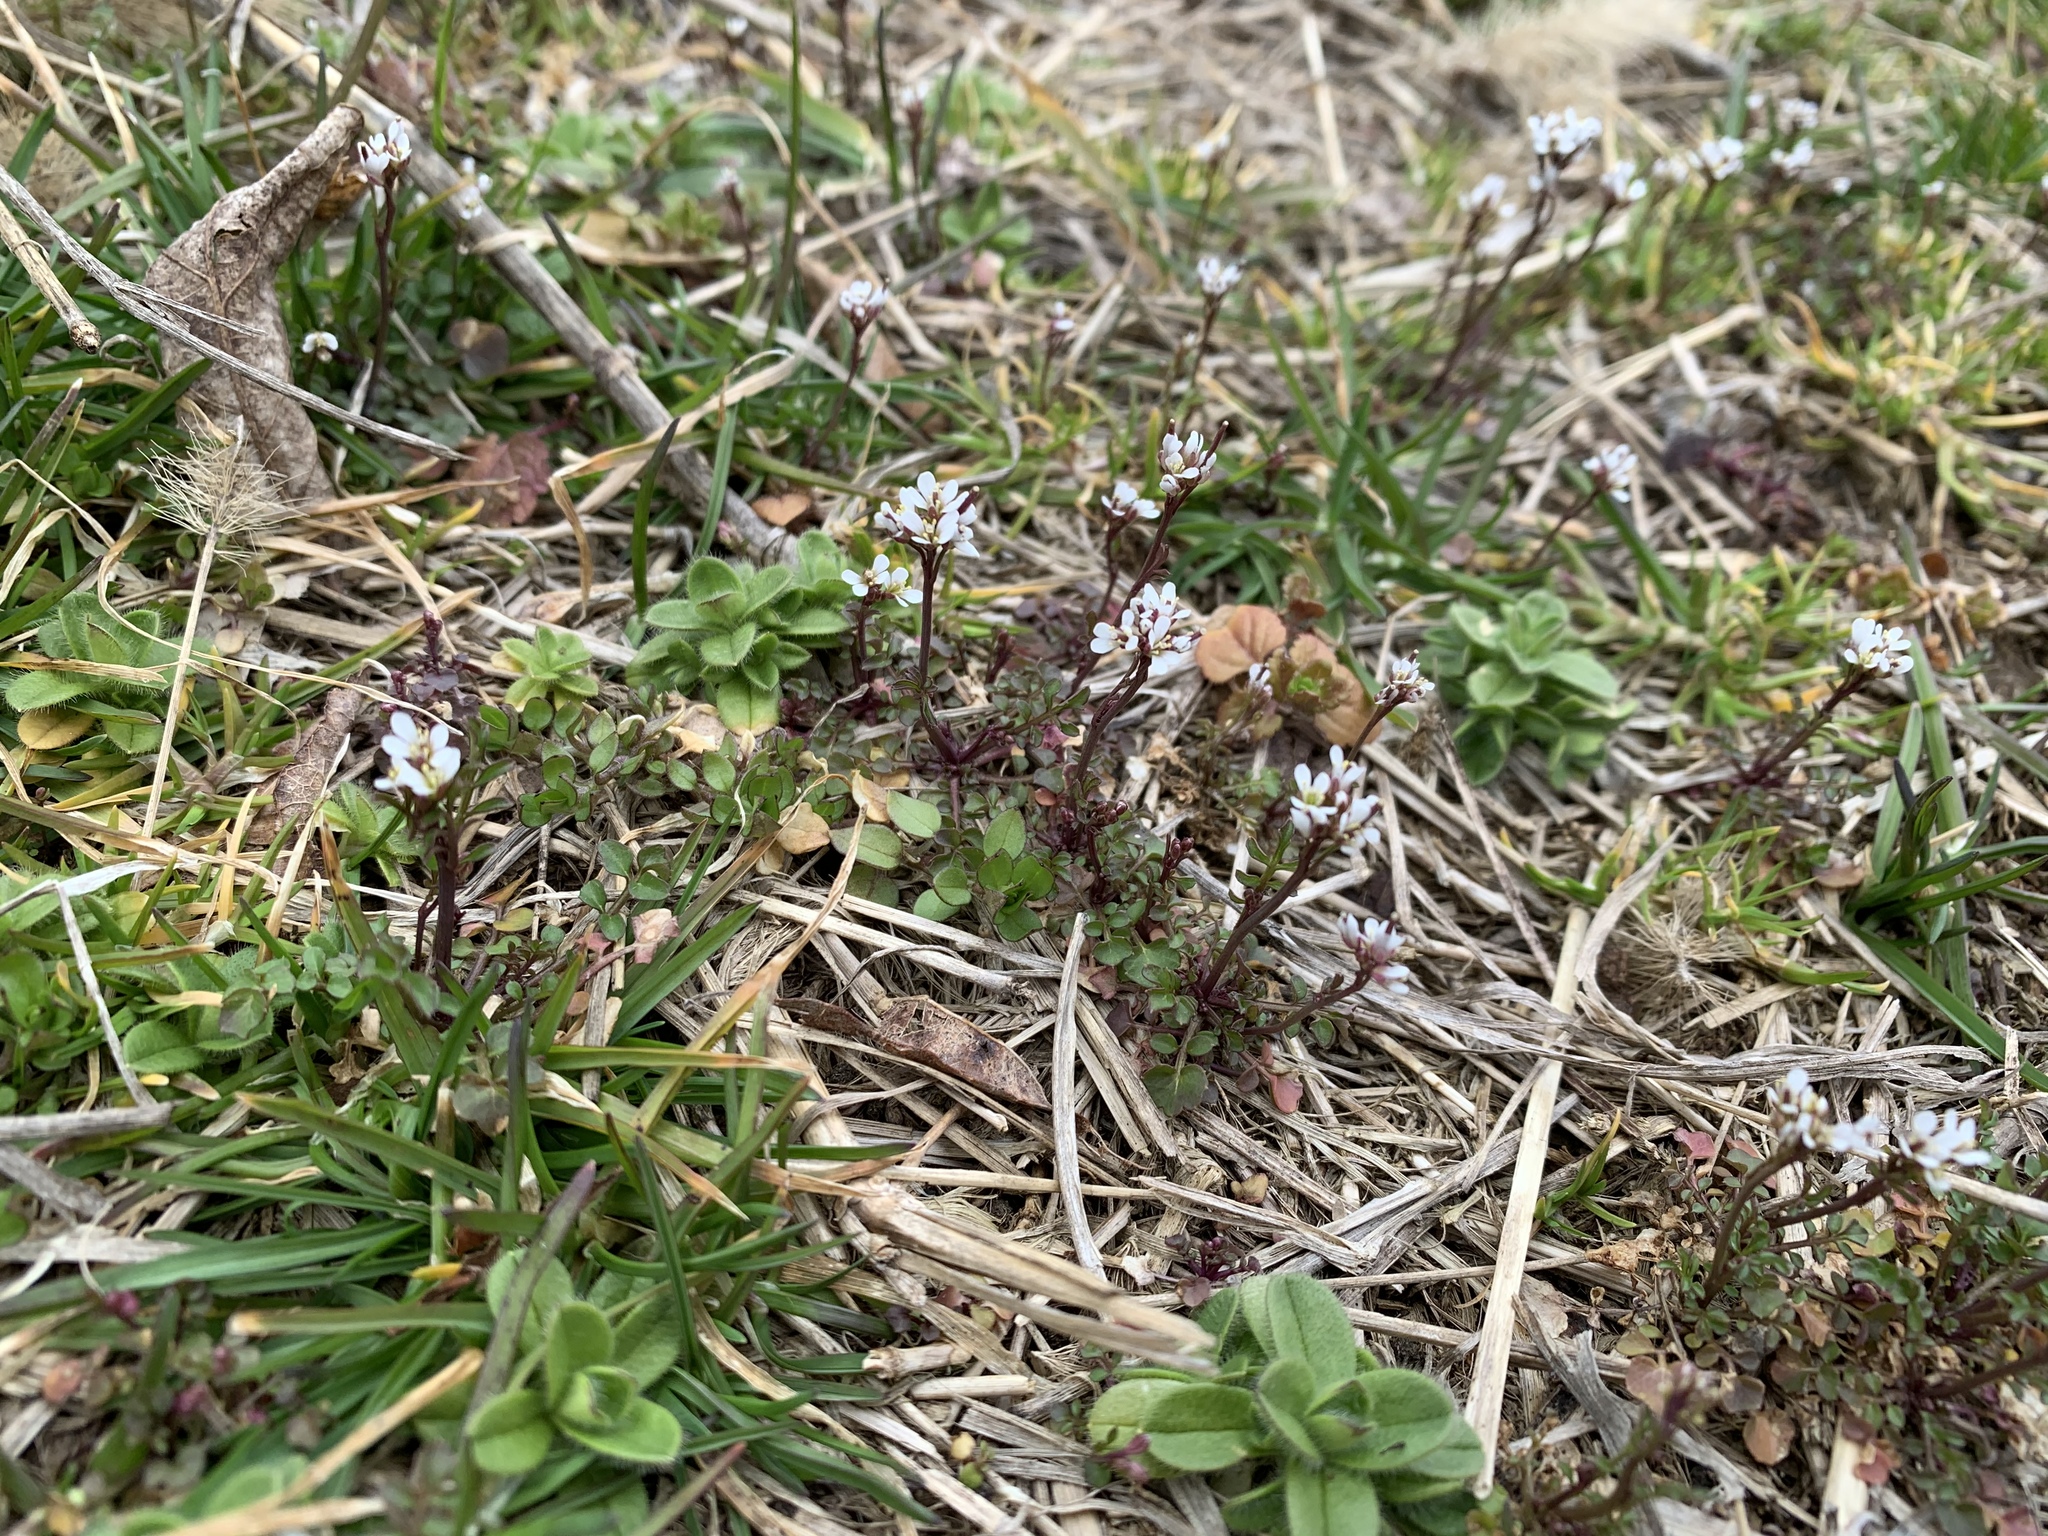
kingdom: Plantae
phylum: Tracheophyta
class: Magnoliopsida
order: Brassicales
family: Brassicaceae
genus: Cardamine
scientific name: Cardamine hirsuta
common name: Hairy bittercress
